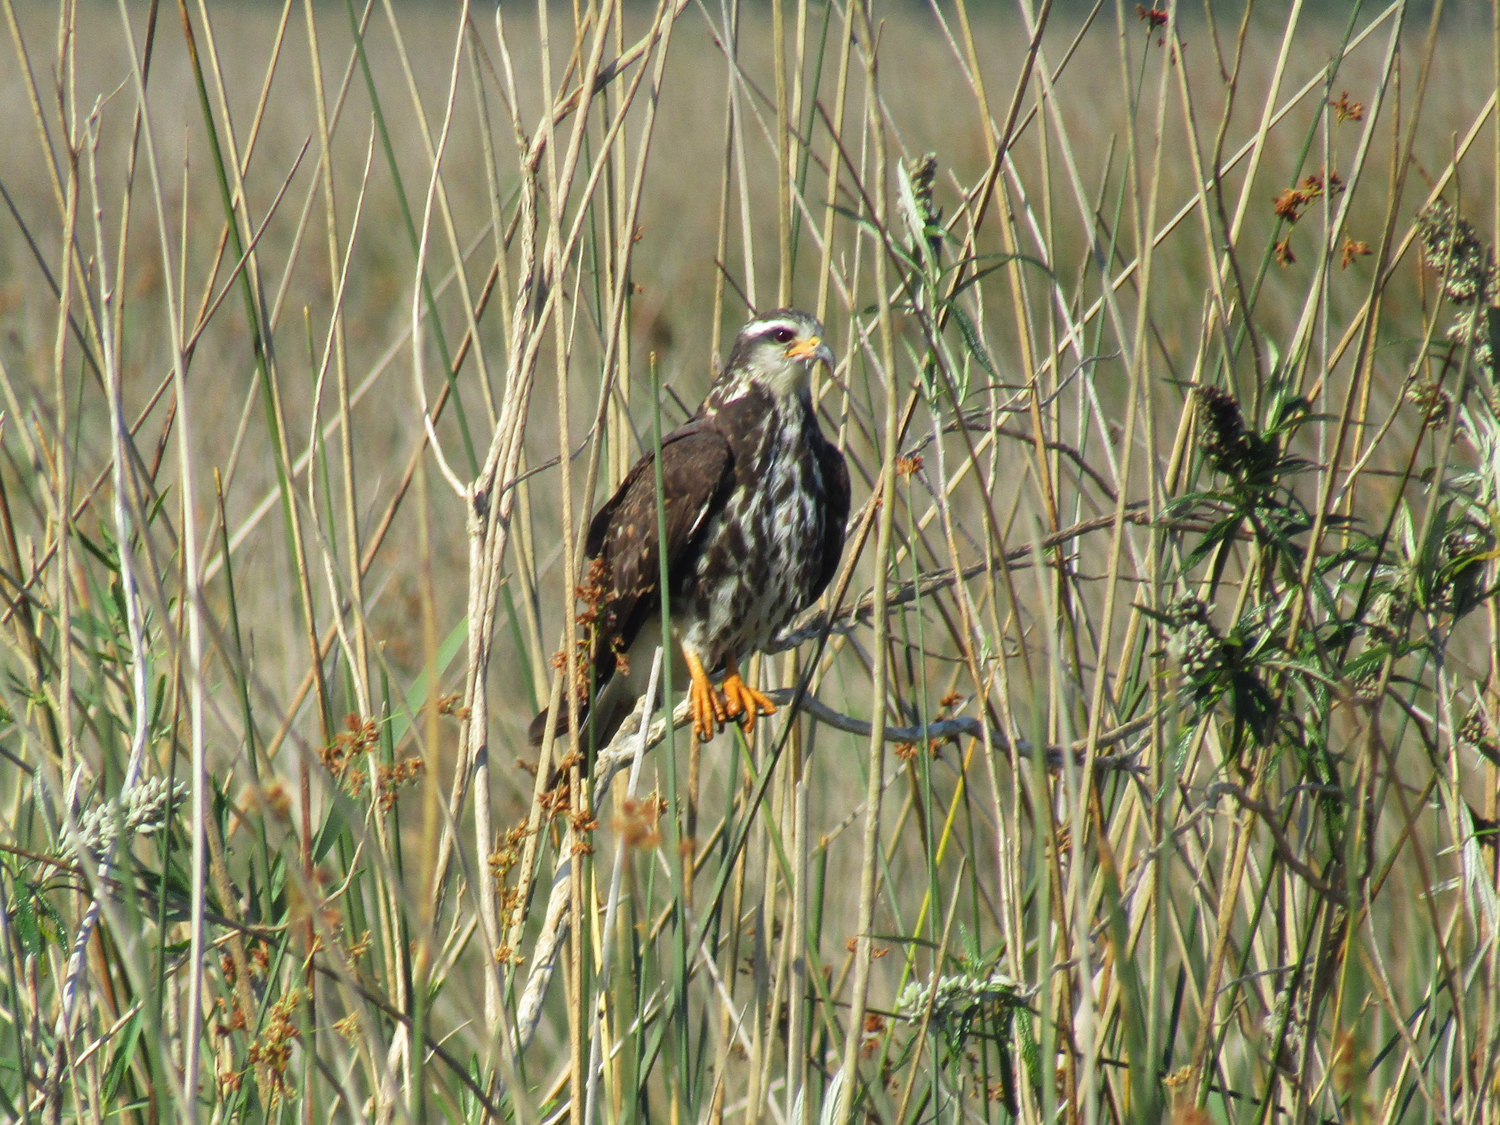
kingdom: Animalia
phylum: Chordata
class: Aves
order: Accipitriformes
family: Accipitridae
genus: Rostrhamus
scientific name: Rostrhamus sociabilis
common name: Snail kite
